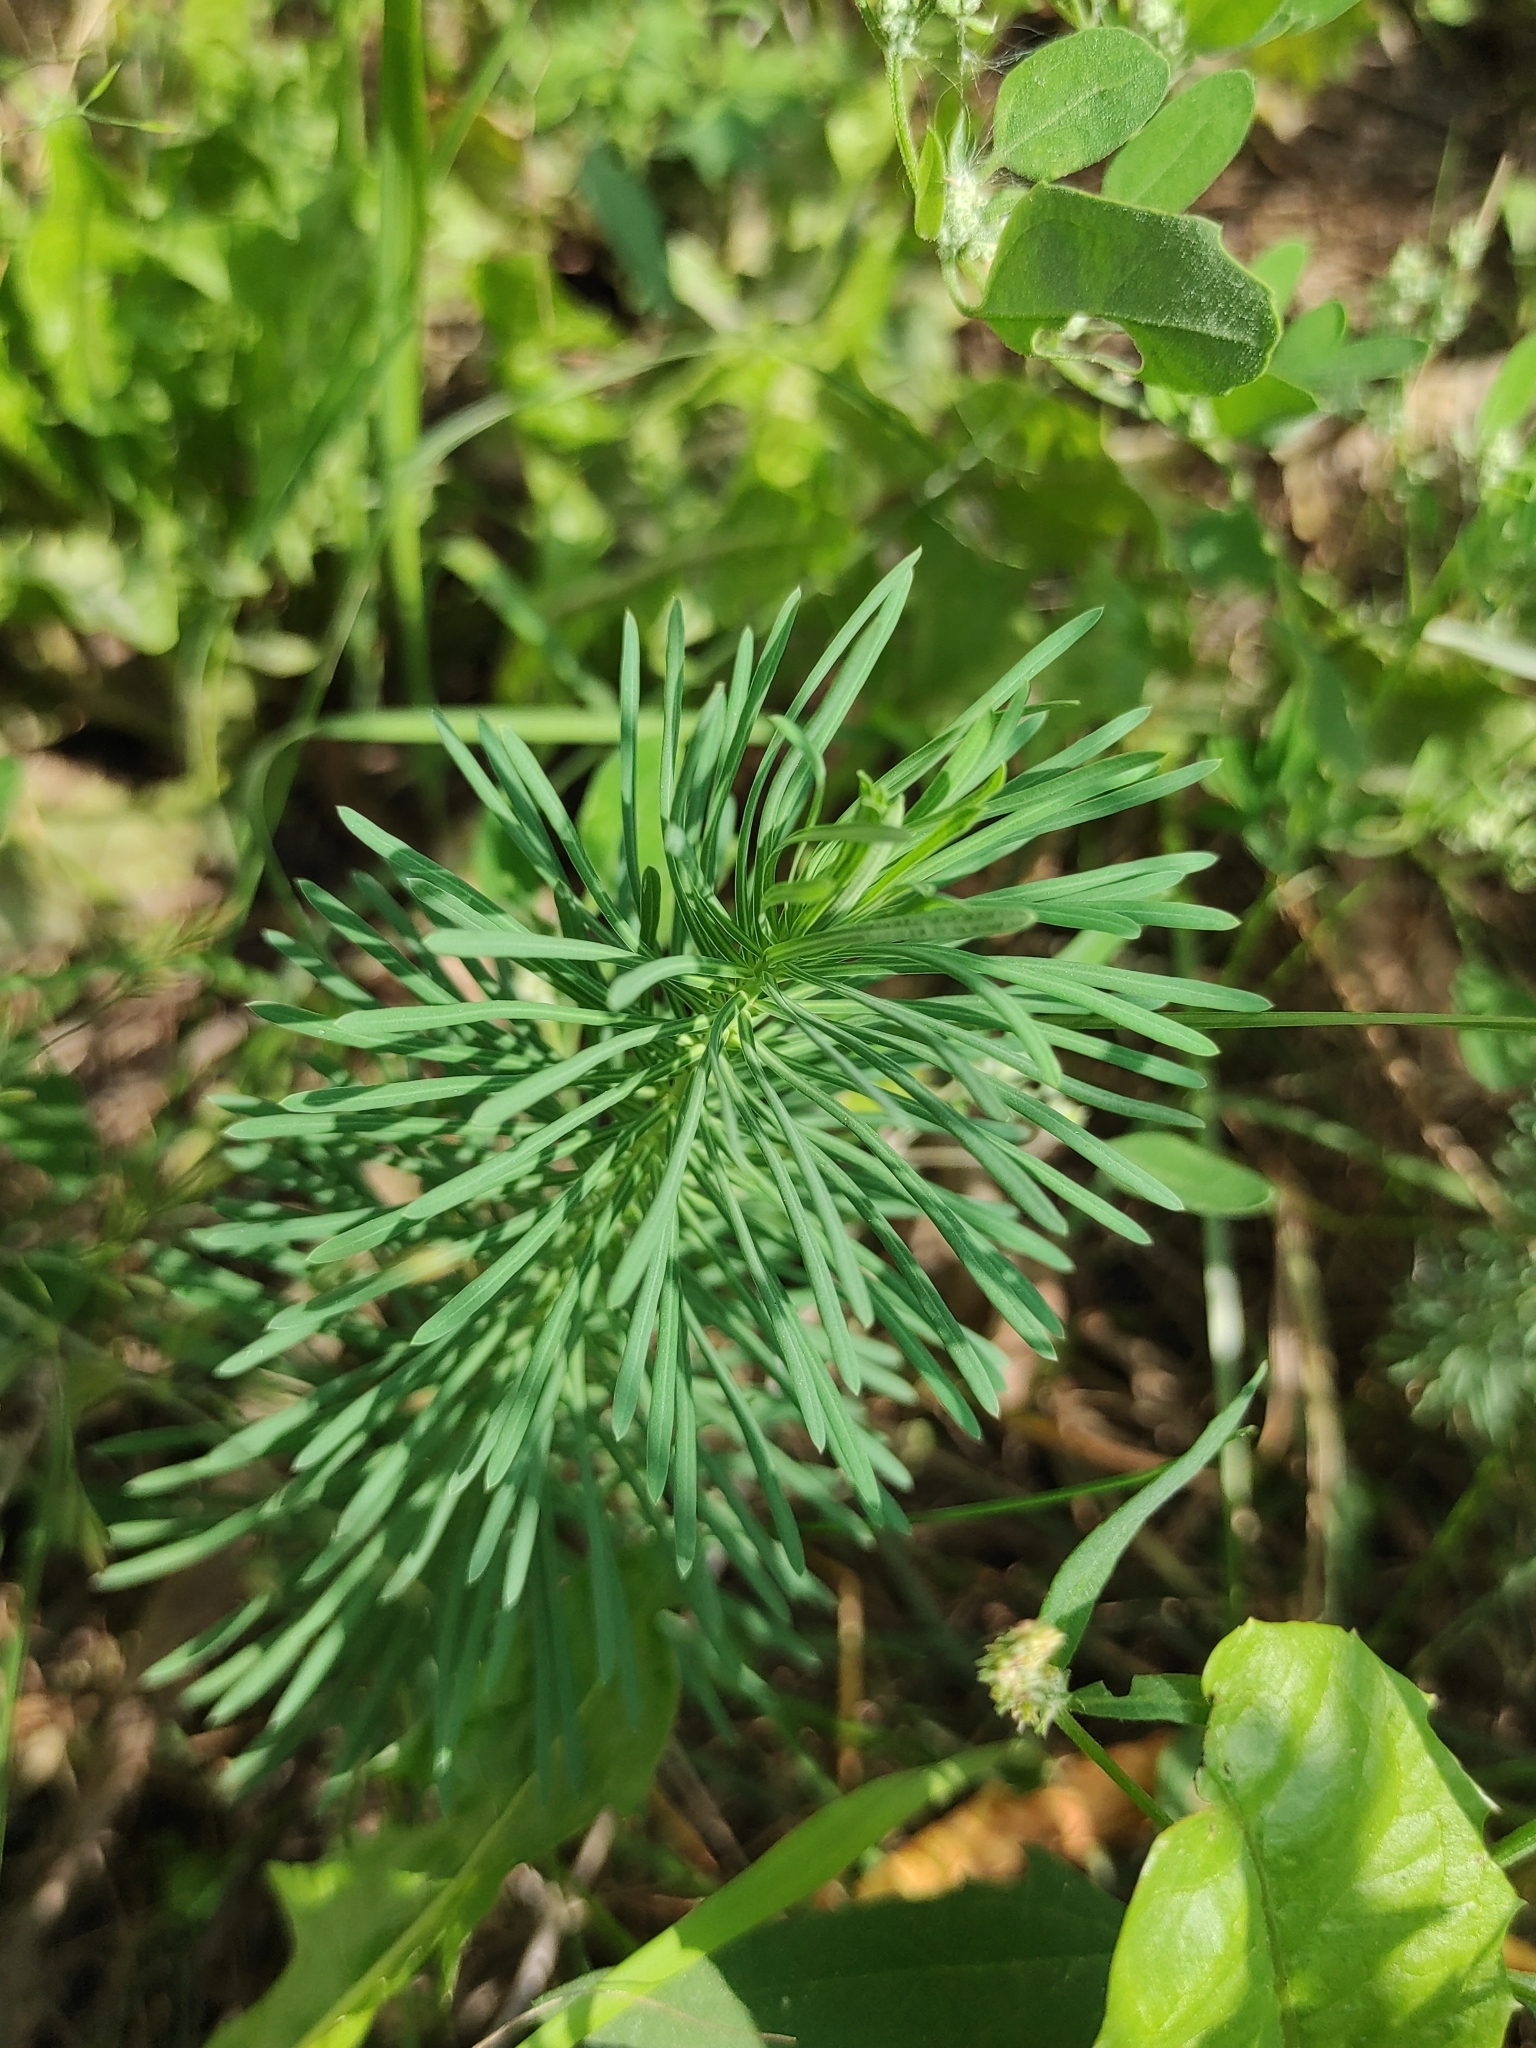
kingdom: Plantae
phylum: Tracheophyta
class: Magnoliopsida
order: Malpighiales
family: Euphorbiaceae
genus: Euphorbia
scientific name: Euphorbia cyparissias
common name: Cypress spurge
